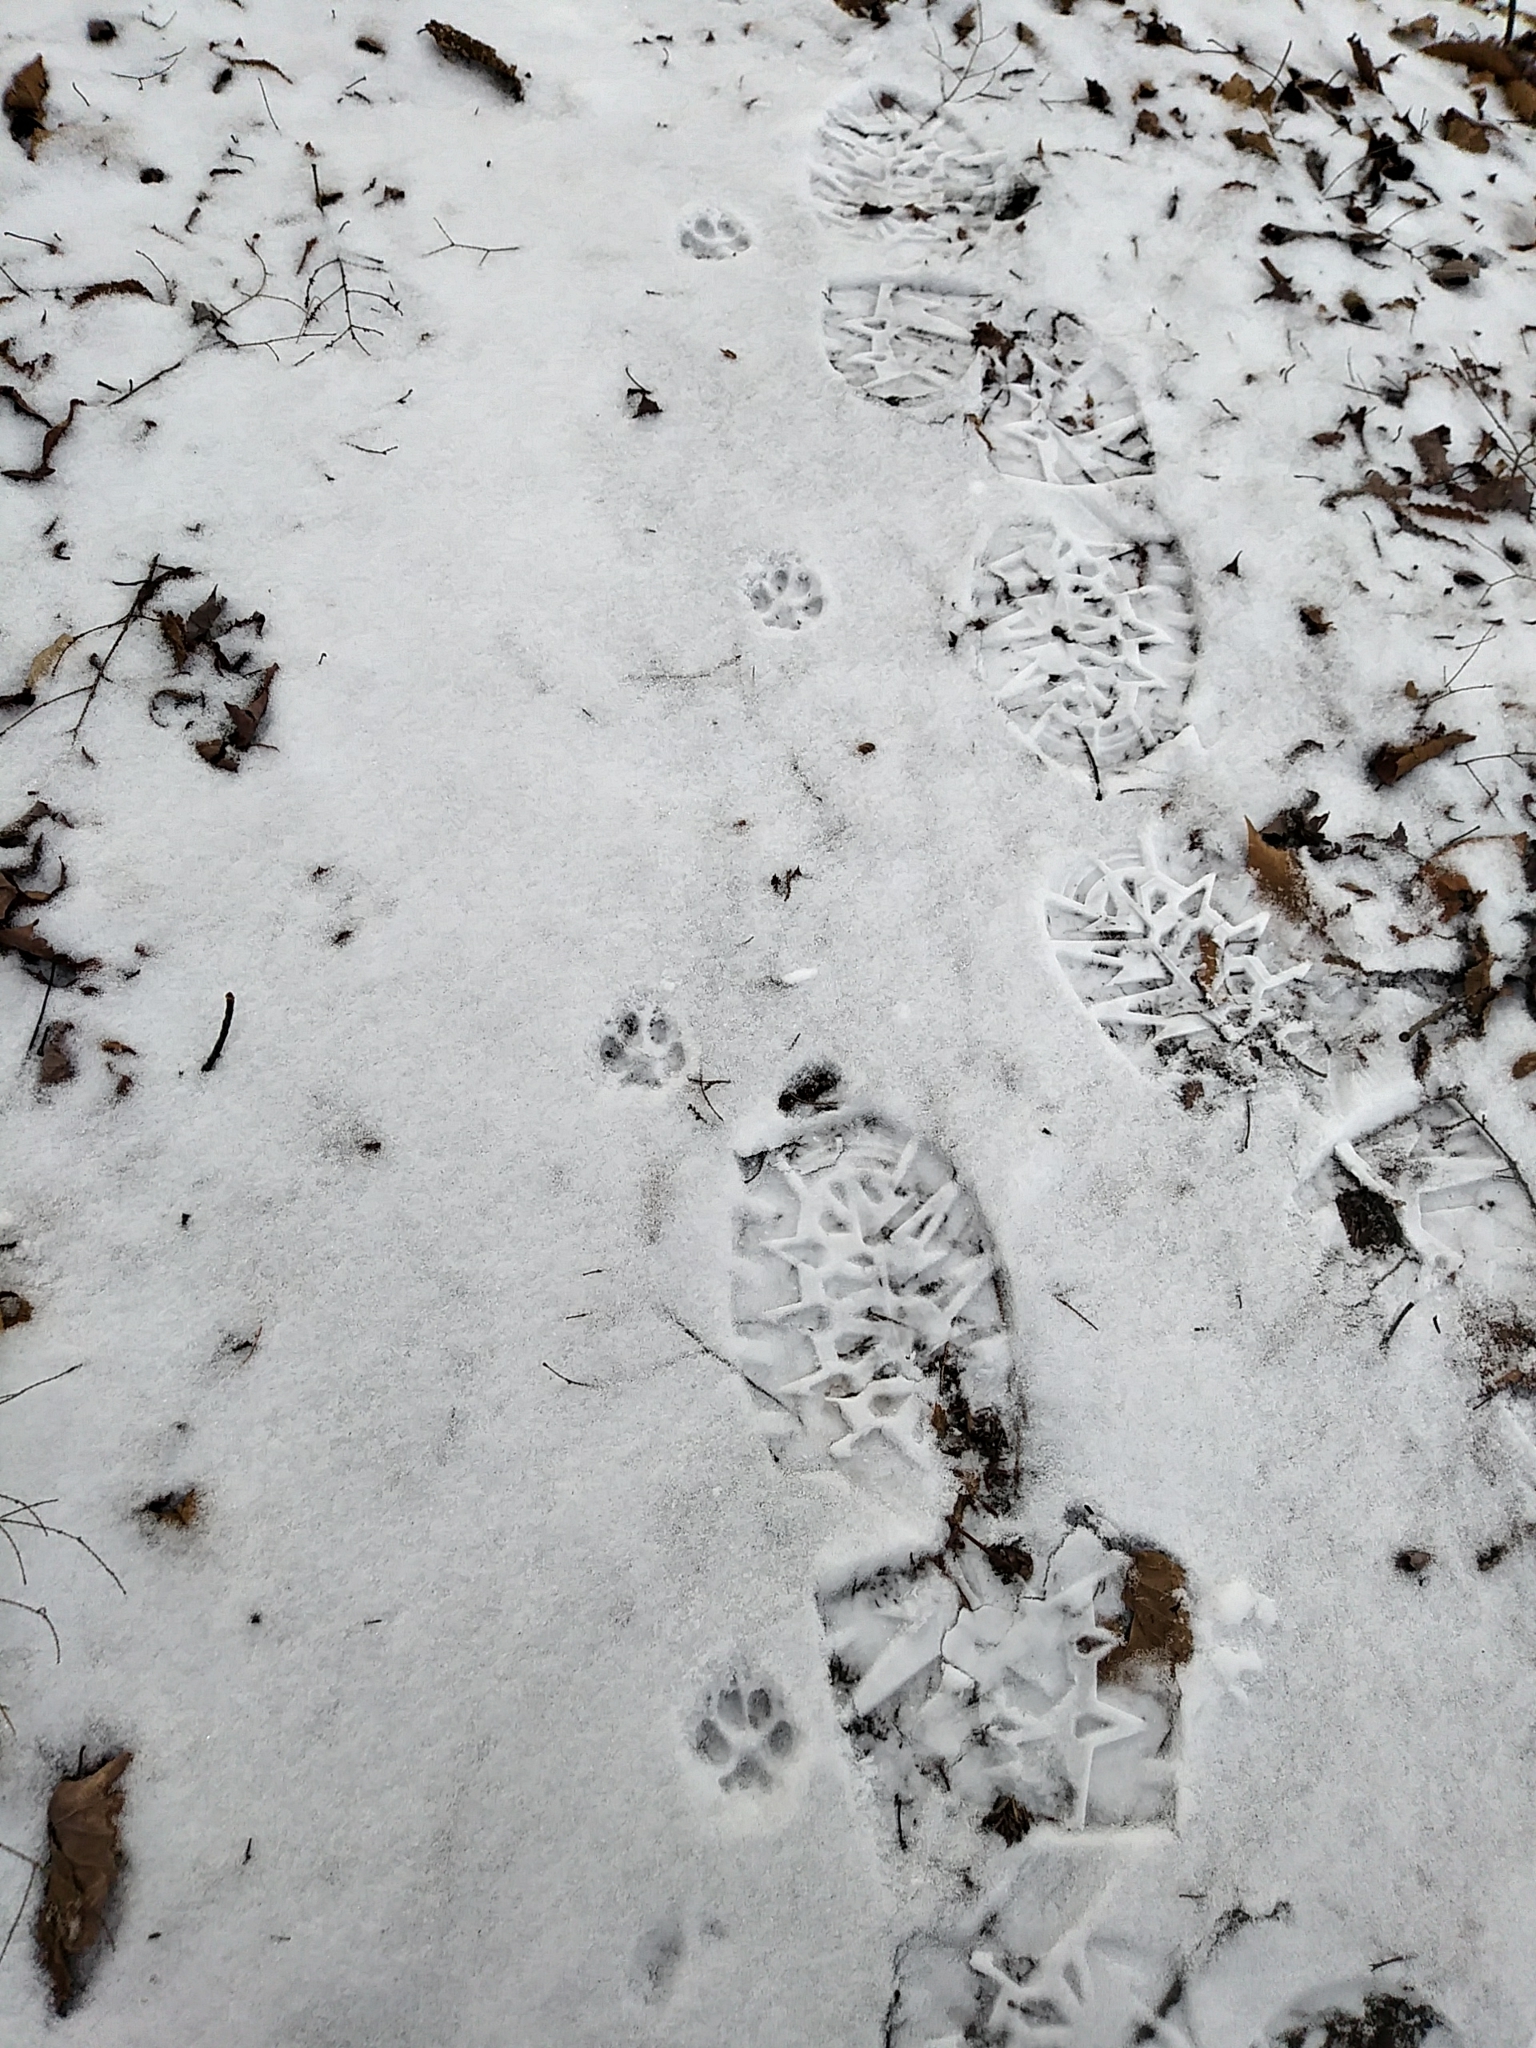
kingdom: Animalia
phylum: Chordata
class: Mammalia
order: Carnivora
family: Canidae
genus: Urocyon
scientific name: Urocyon cinereoargenteus
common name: Gray fox
